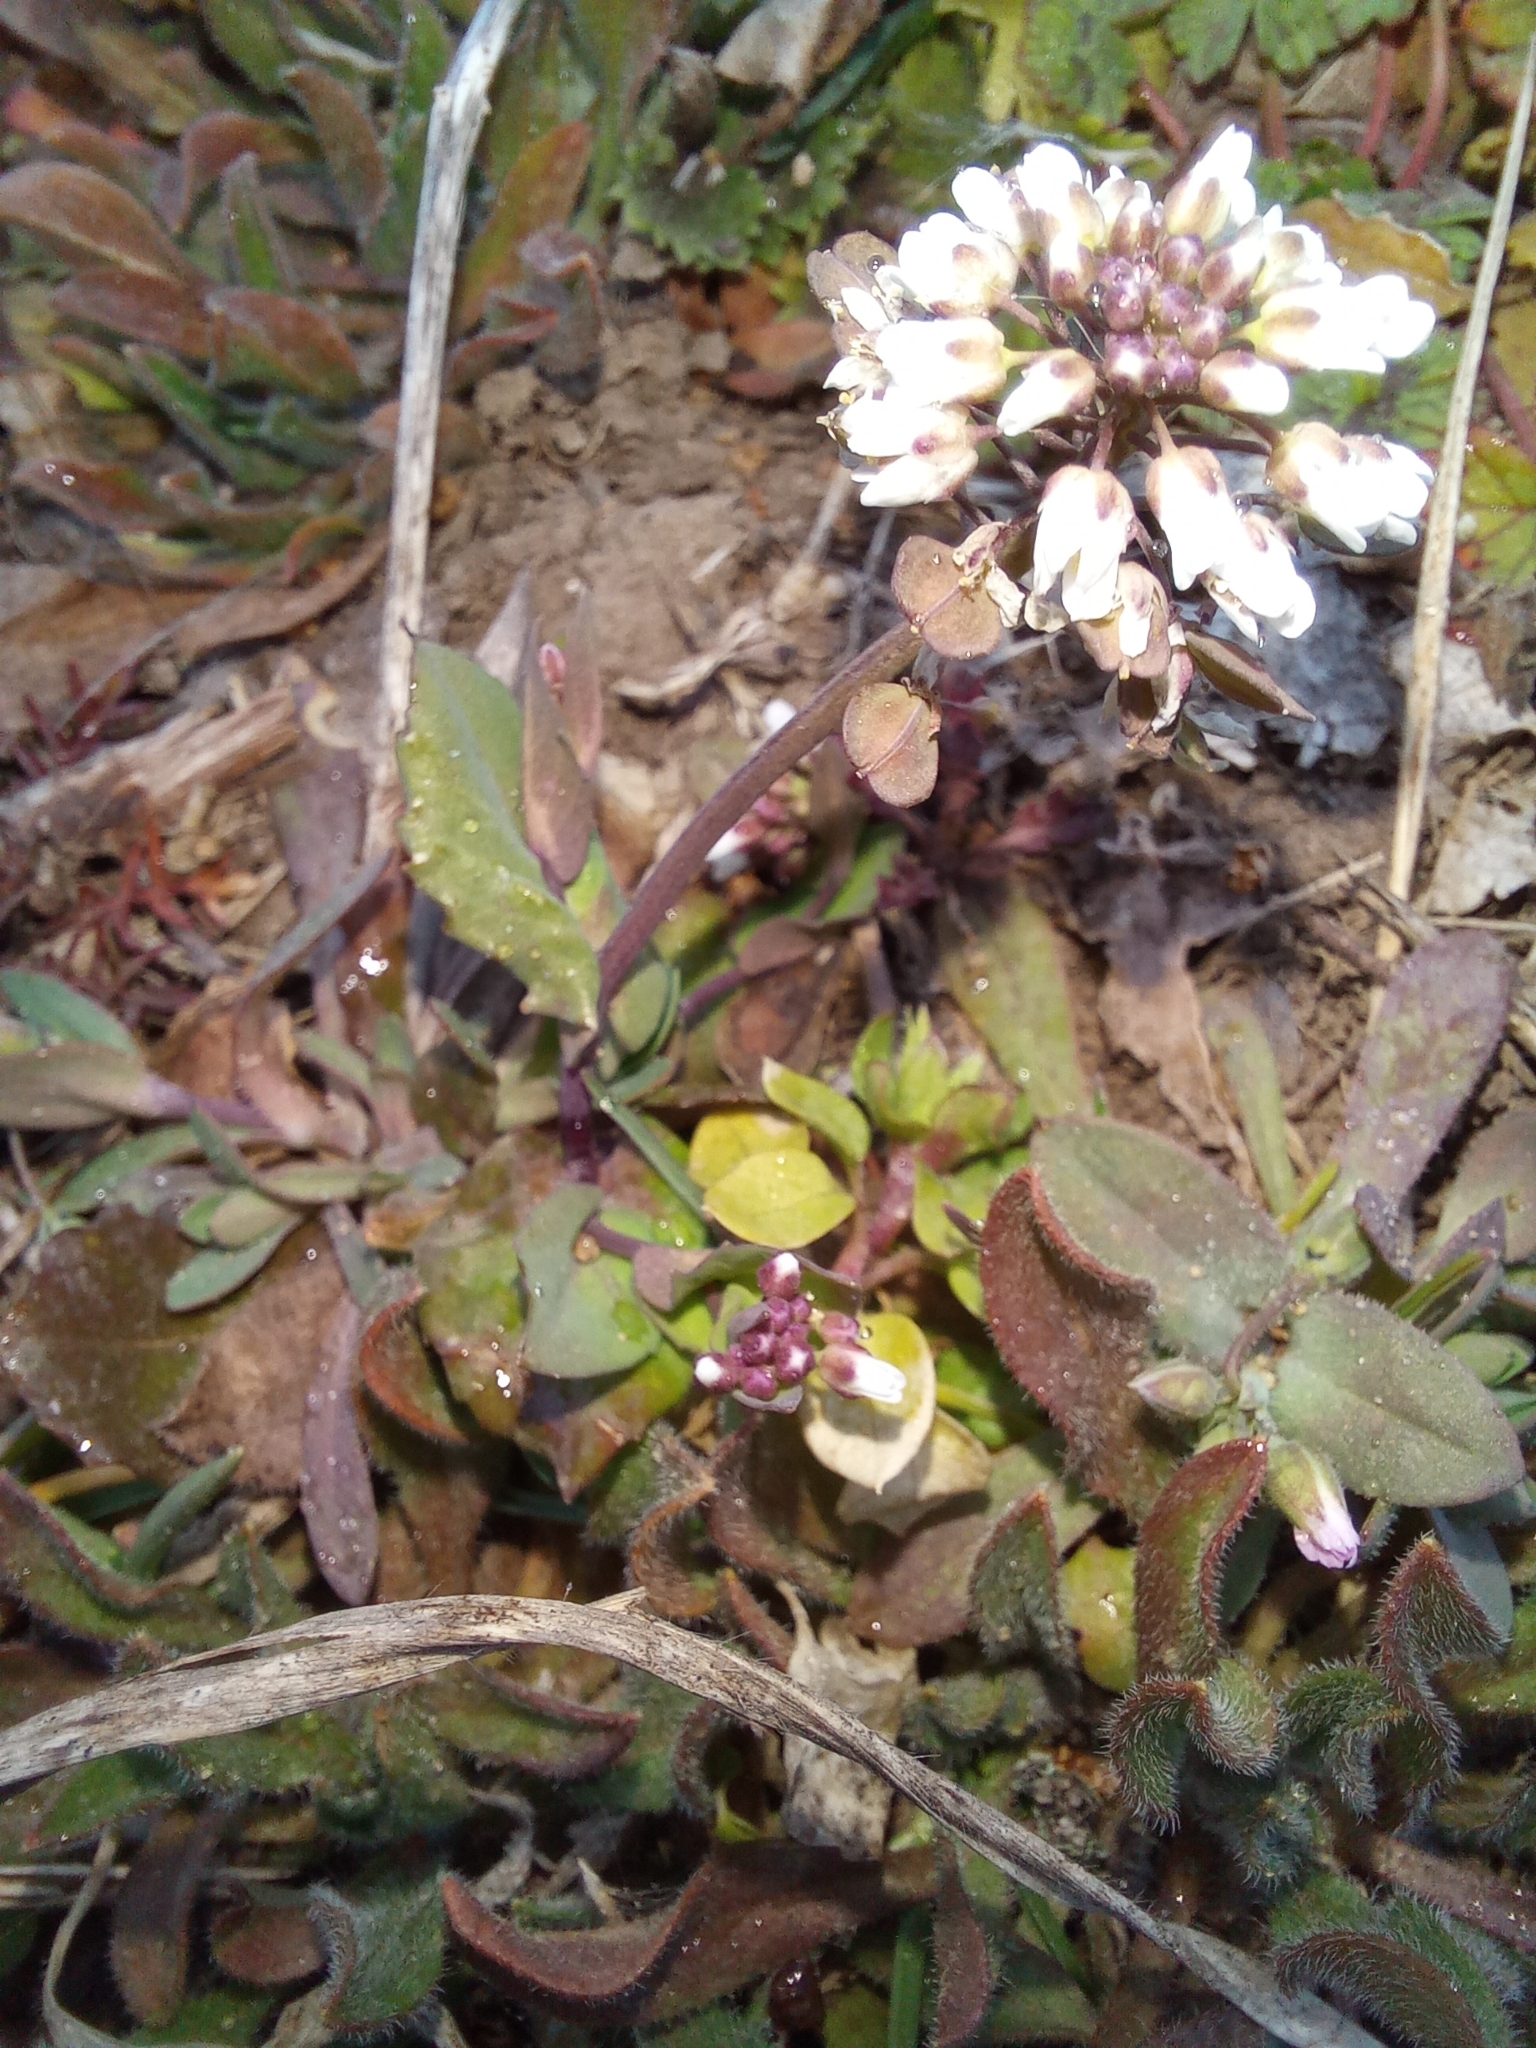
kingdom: Plantae
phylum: Tracheophyta
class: Magnoliopsida
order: Brassicales
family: Brassicaceae
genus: Noccaea
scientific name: Noccaea perfoliata
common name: Perfoliate pennycress
